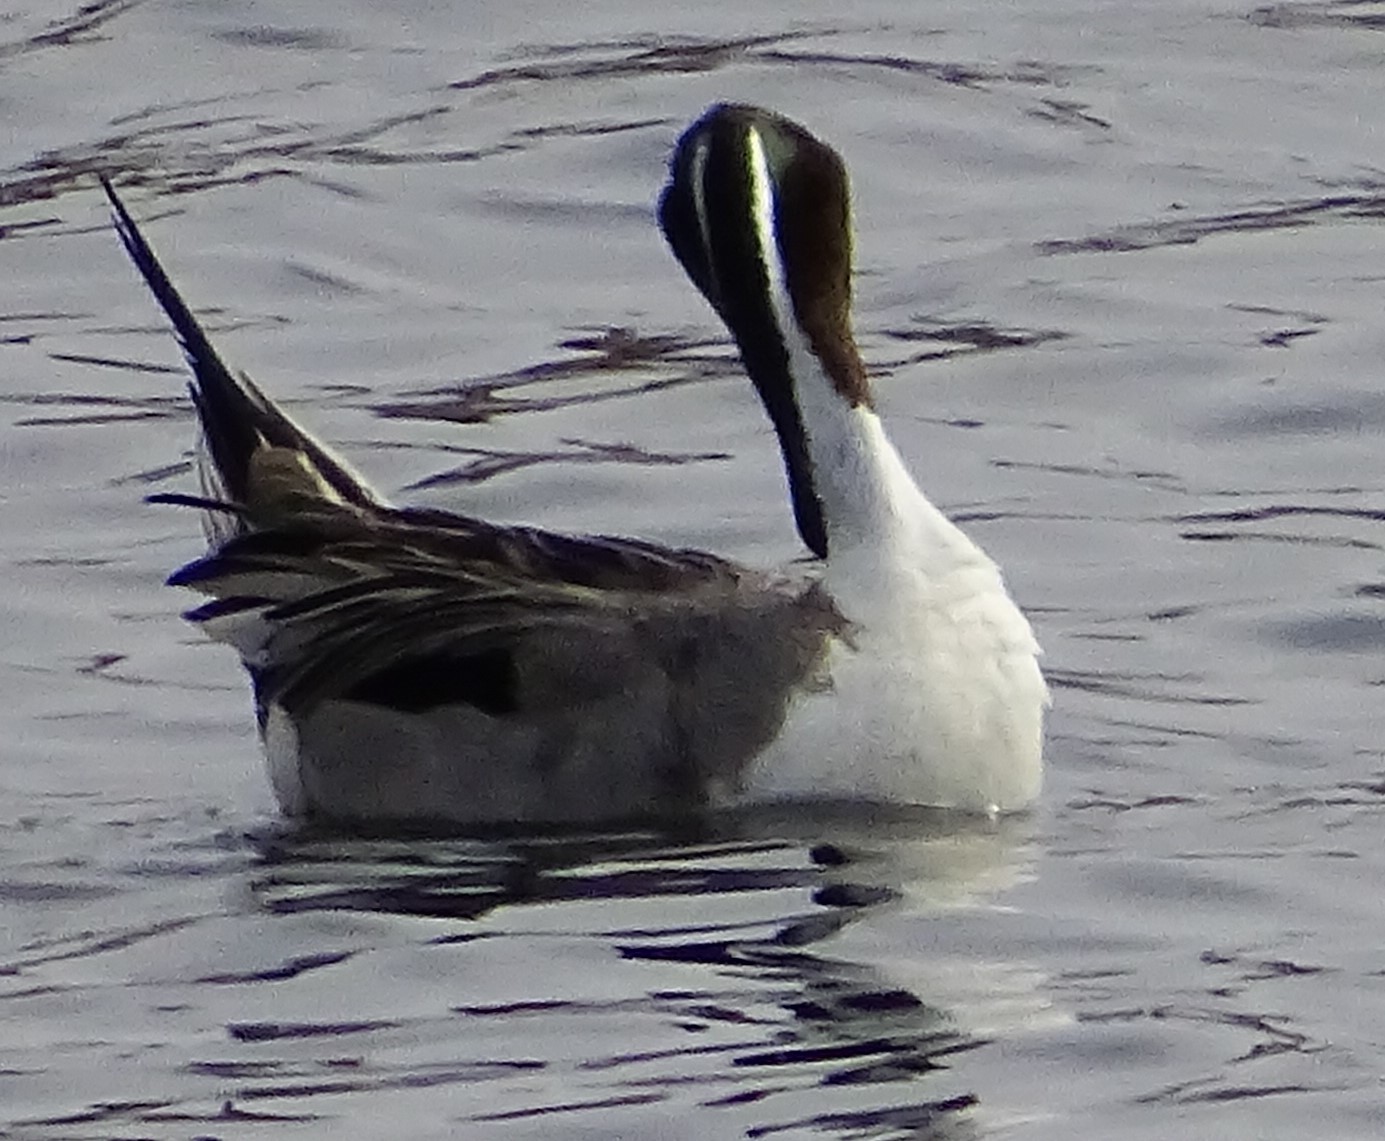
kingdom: Animalia
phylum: Chordata
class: Aves
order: Anseriformes
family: Anatidae
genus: Anas
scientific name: Anas acuta
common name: Northern pintail
